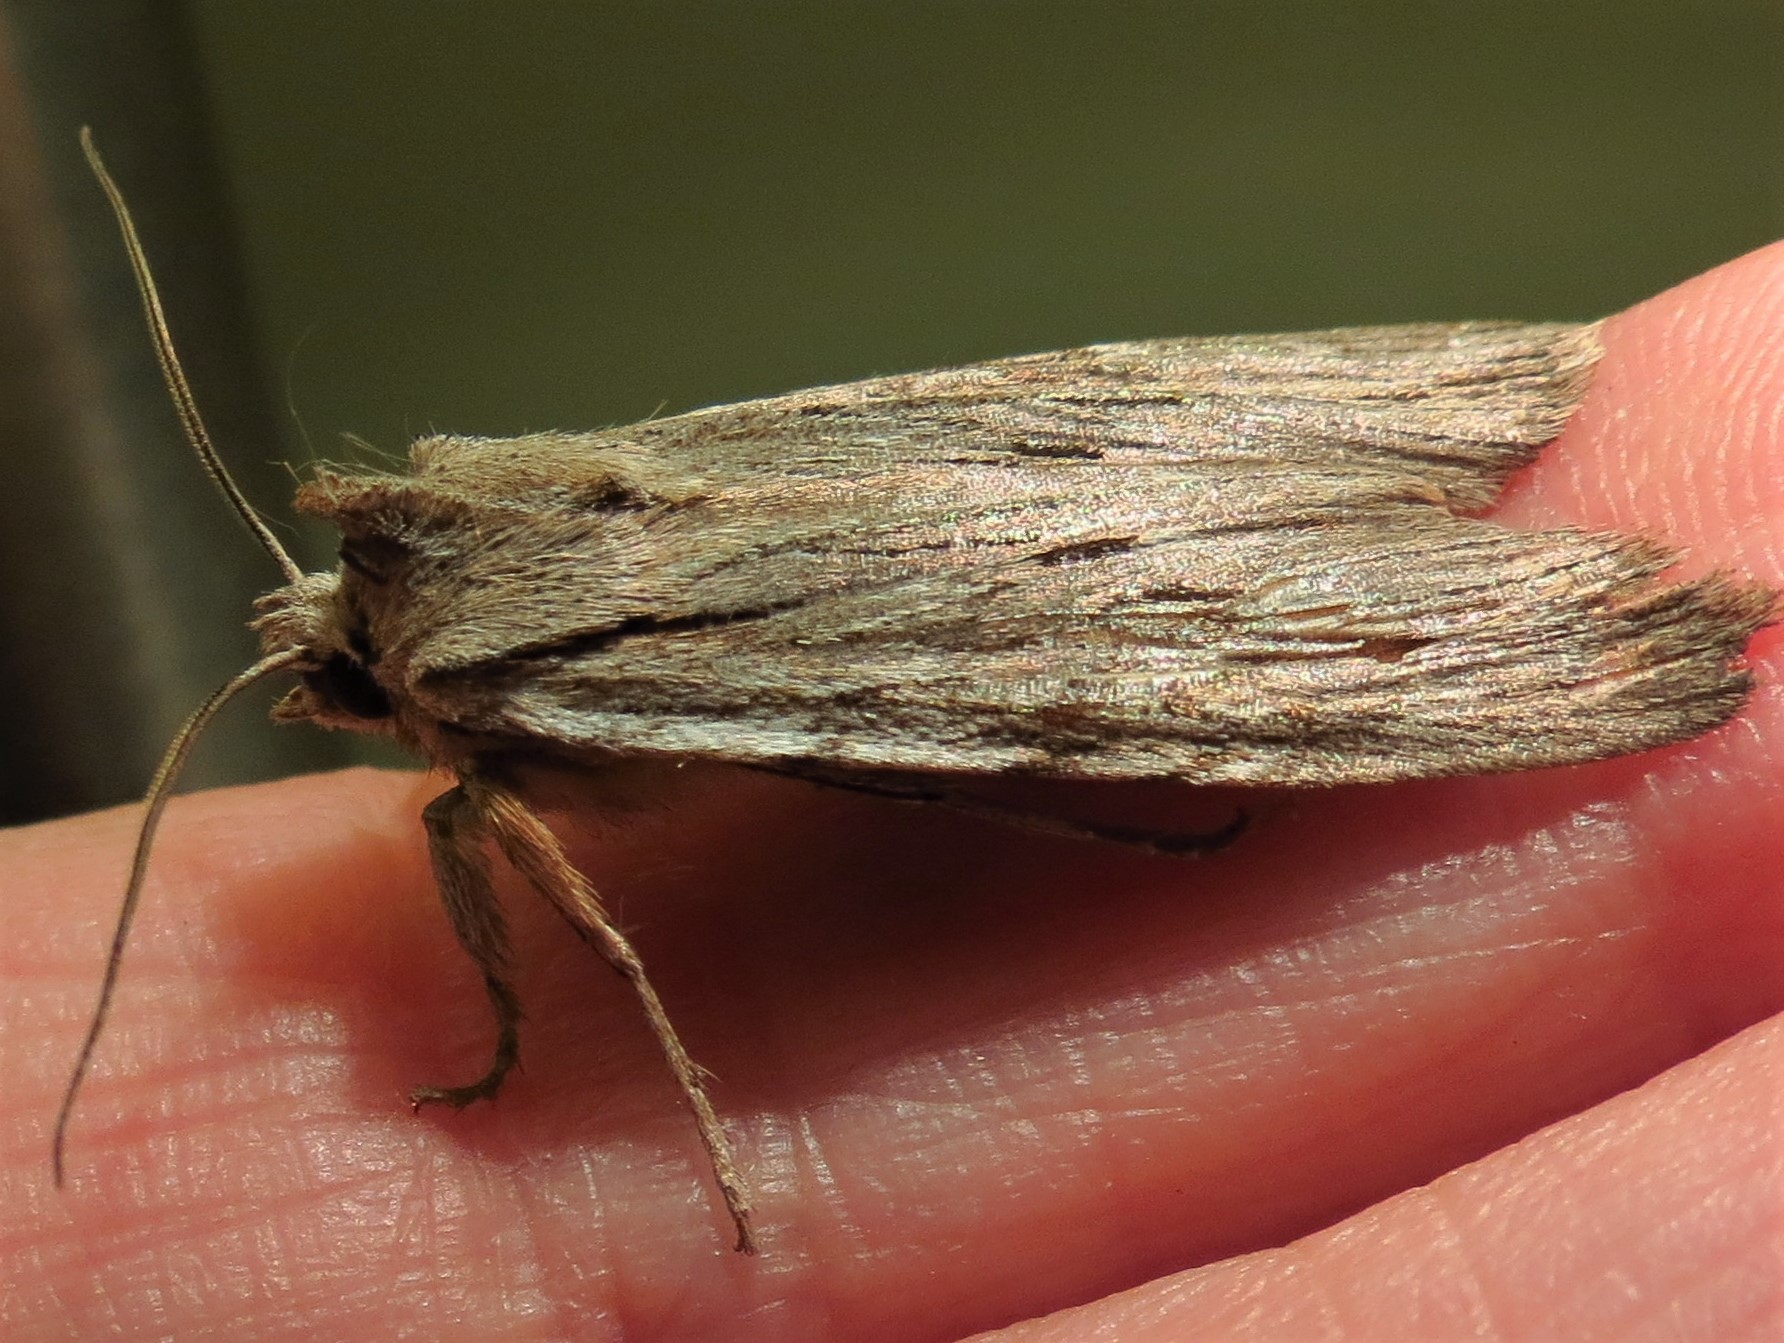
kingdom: Animalia
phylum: Arthropoda
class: Insecta
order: Lepidoptera
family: Noctuidae
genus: Lithophane
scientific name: Lithophane lemmeri
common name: Lemmer's pinion moth
